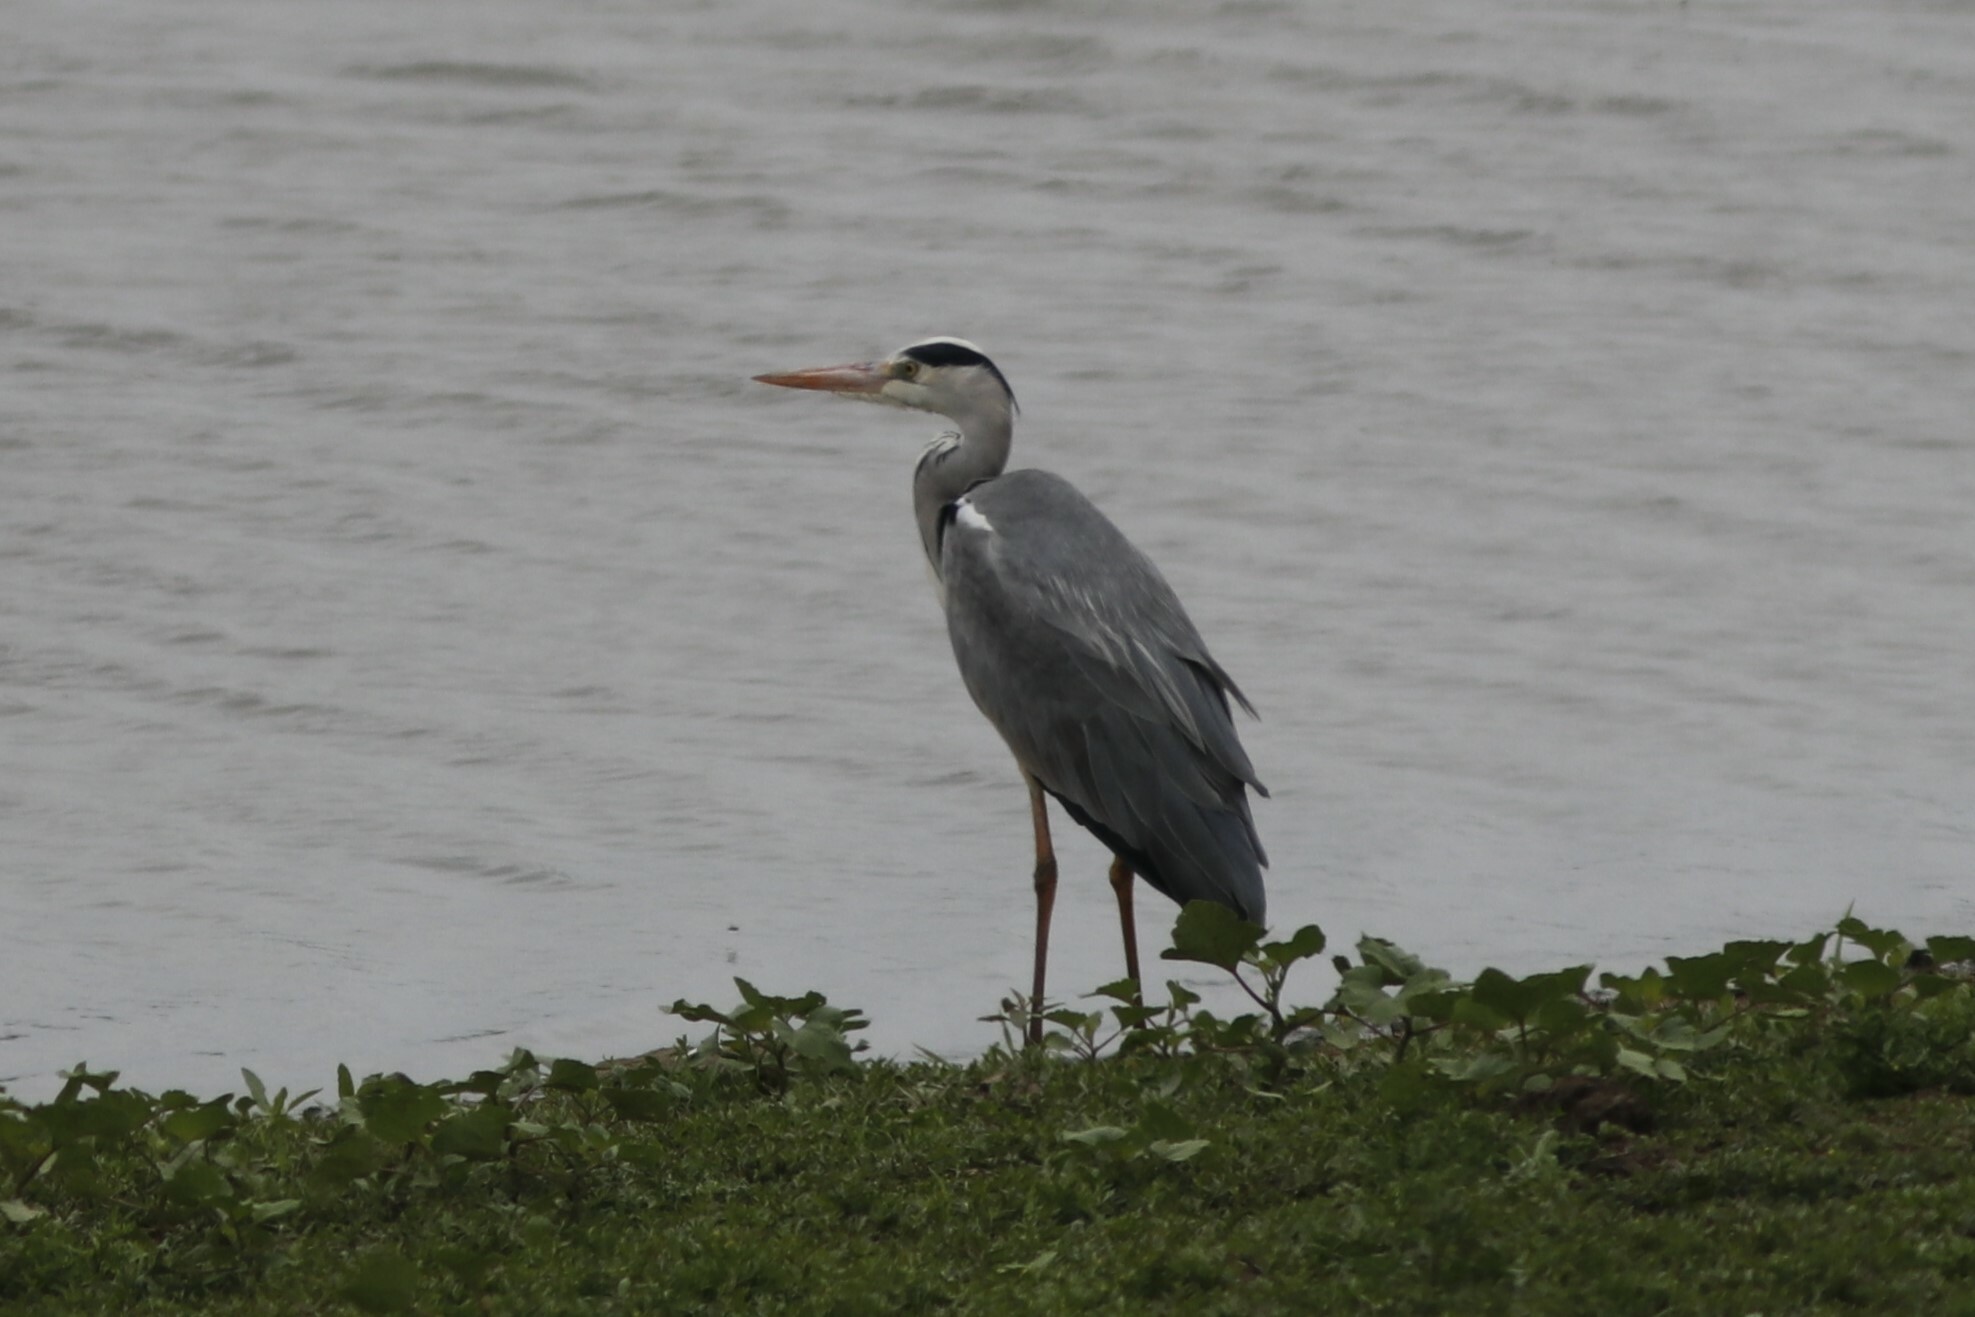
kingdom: Animalia
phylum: Chordata
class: Aves
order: Pelecaniformes
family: Ardeidae
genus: Ardea
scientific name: Ardea cinerea
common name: Grey heron
